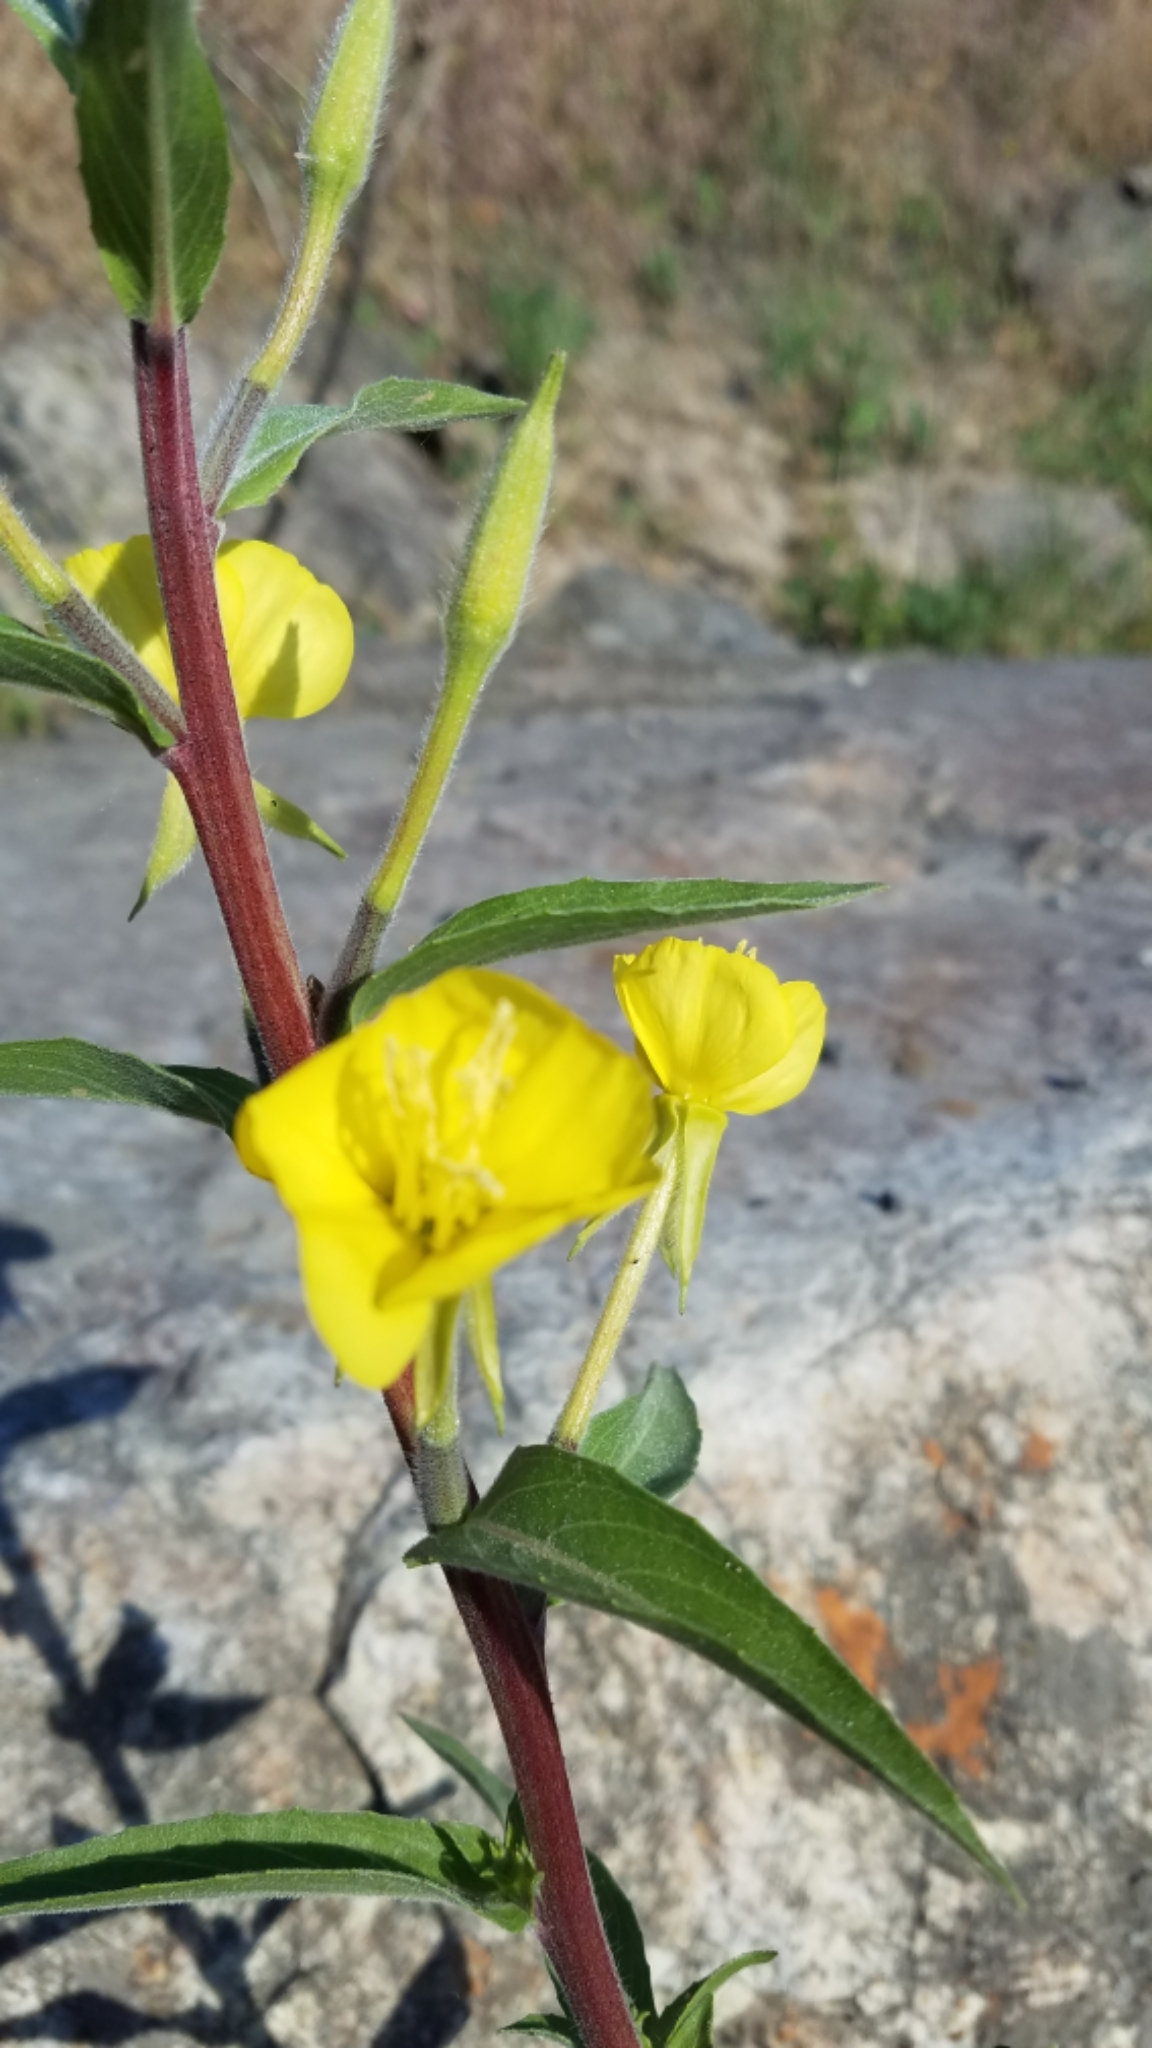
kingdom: Plantae
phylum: Tracheophyta
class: Magnoliopsida
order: Myrtales
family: Onagraceae
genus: Oenothera
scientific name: Oenothera biennis
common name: Common evening-primrose
